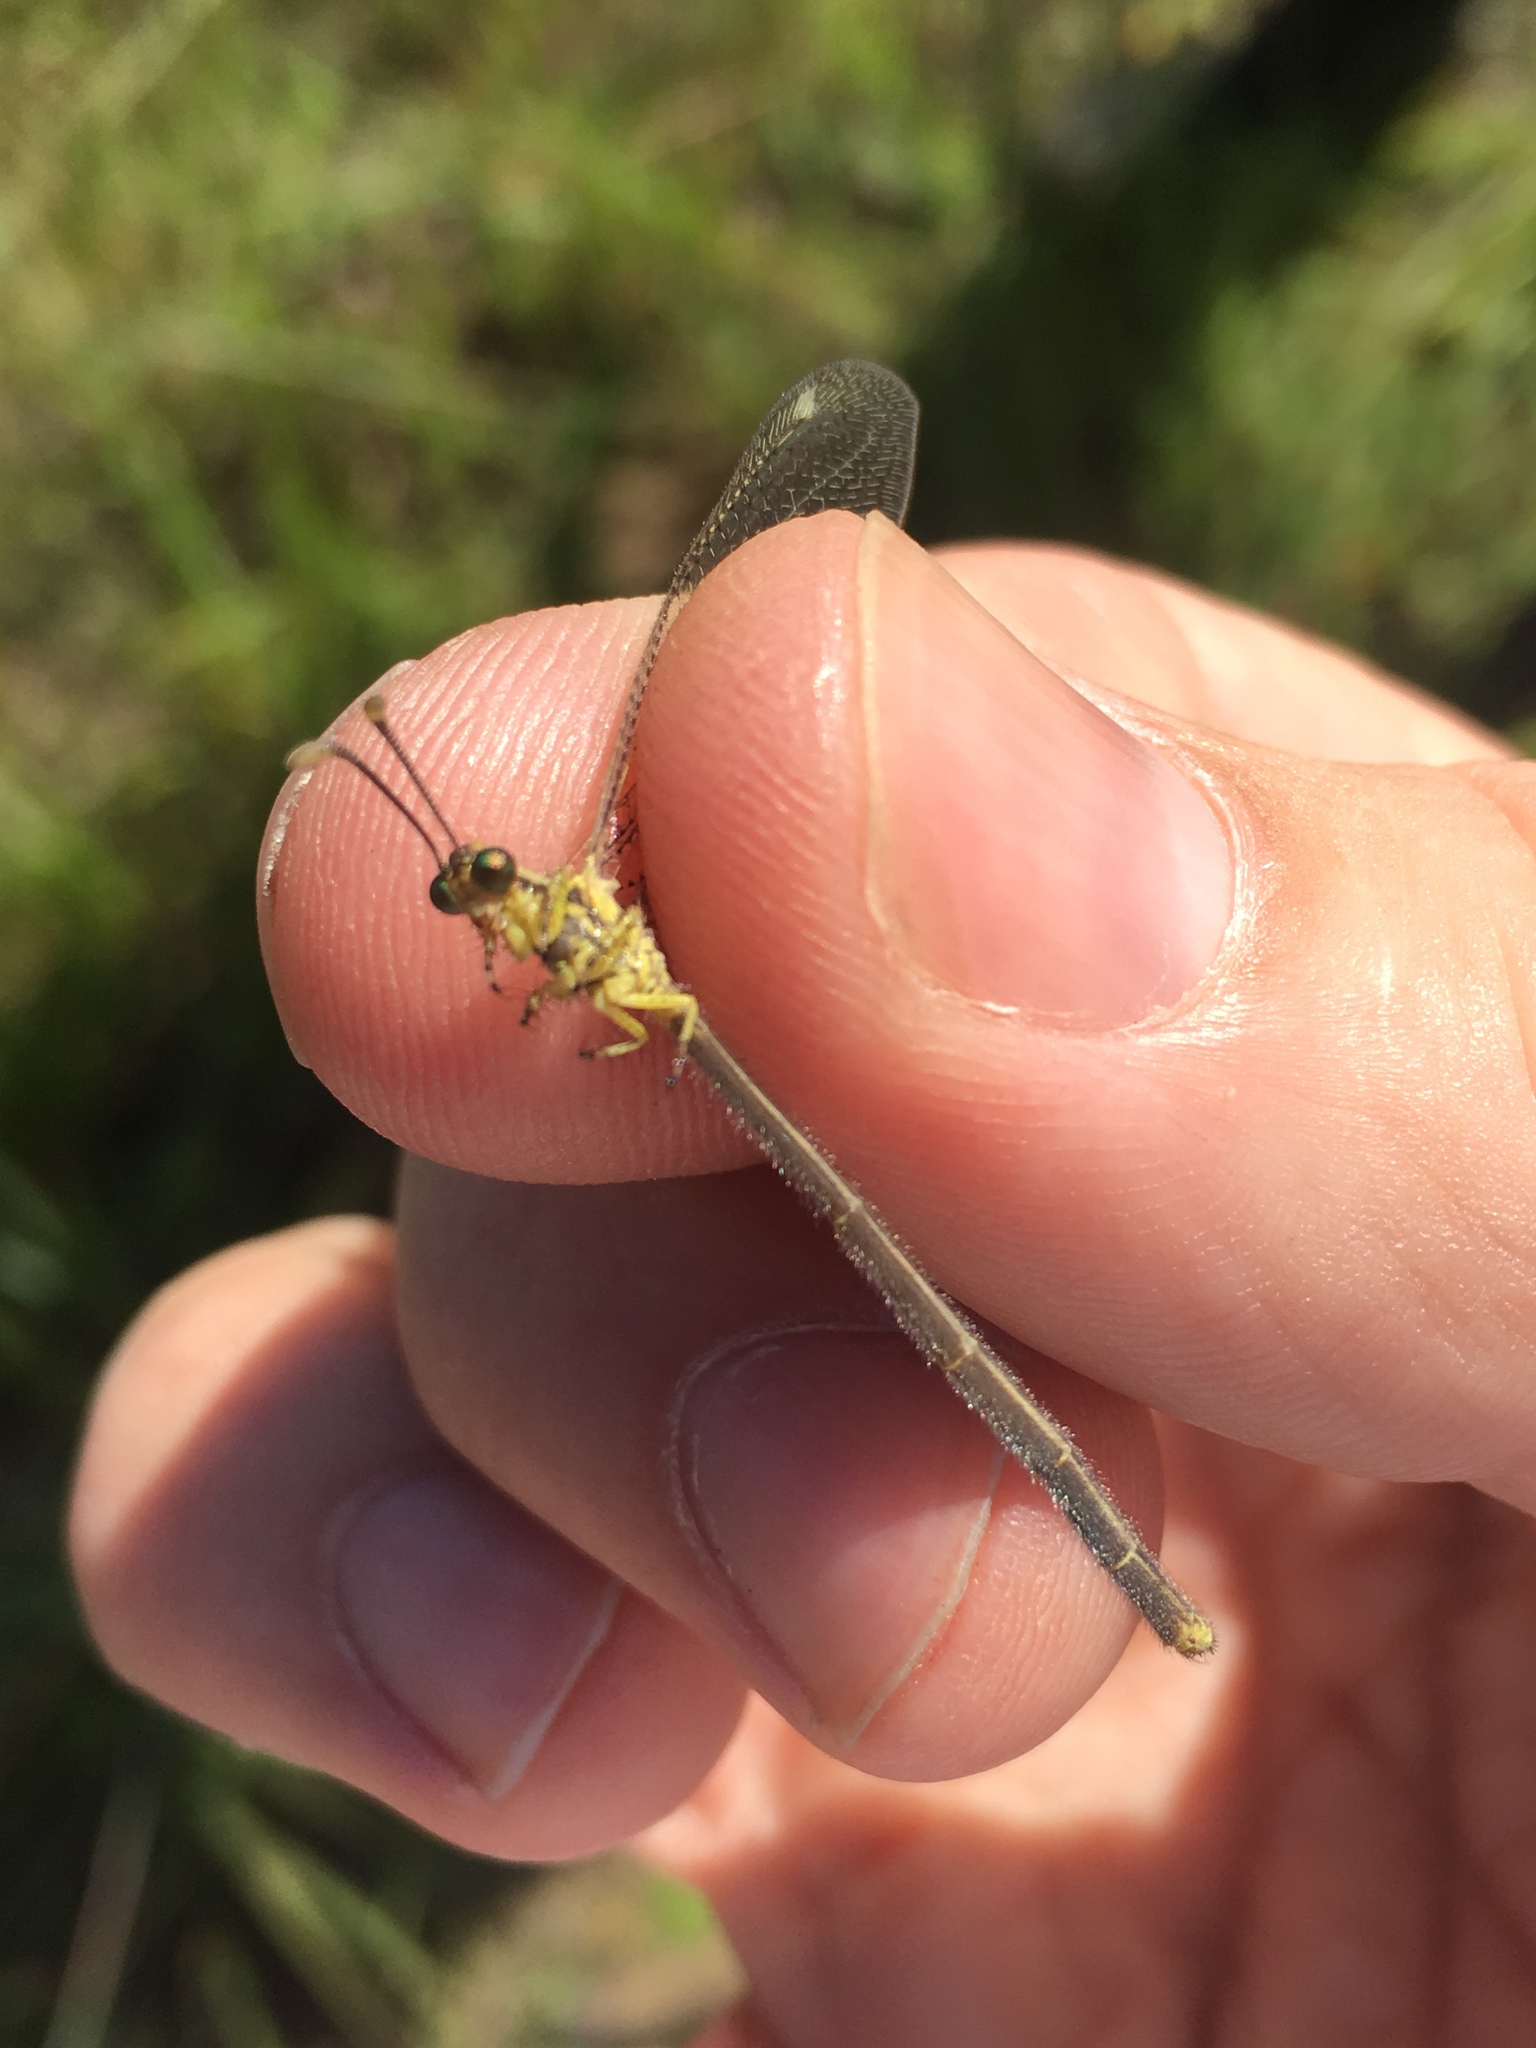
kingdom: Animalia
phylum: Arthropoda
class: Insecta
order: Neuroptera
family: Myrmeleontidae
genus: Brachynemurus
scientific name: Brachynemurus abdominalis
